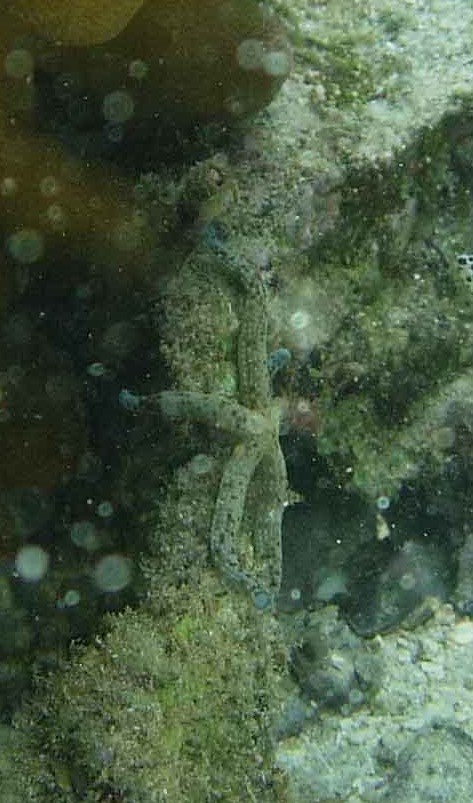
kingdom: Animalia
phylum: Echinodermata
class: Asteroidea
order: Valvatida
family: Ophidiasteridae
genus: Linckia
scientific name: Linckia multifora
